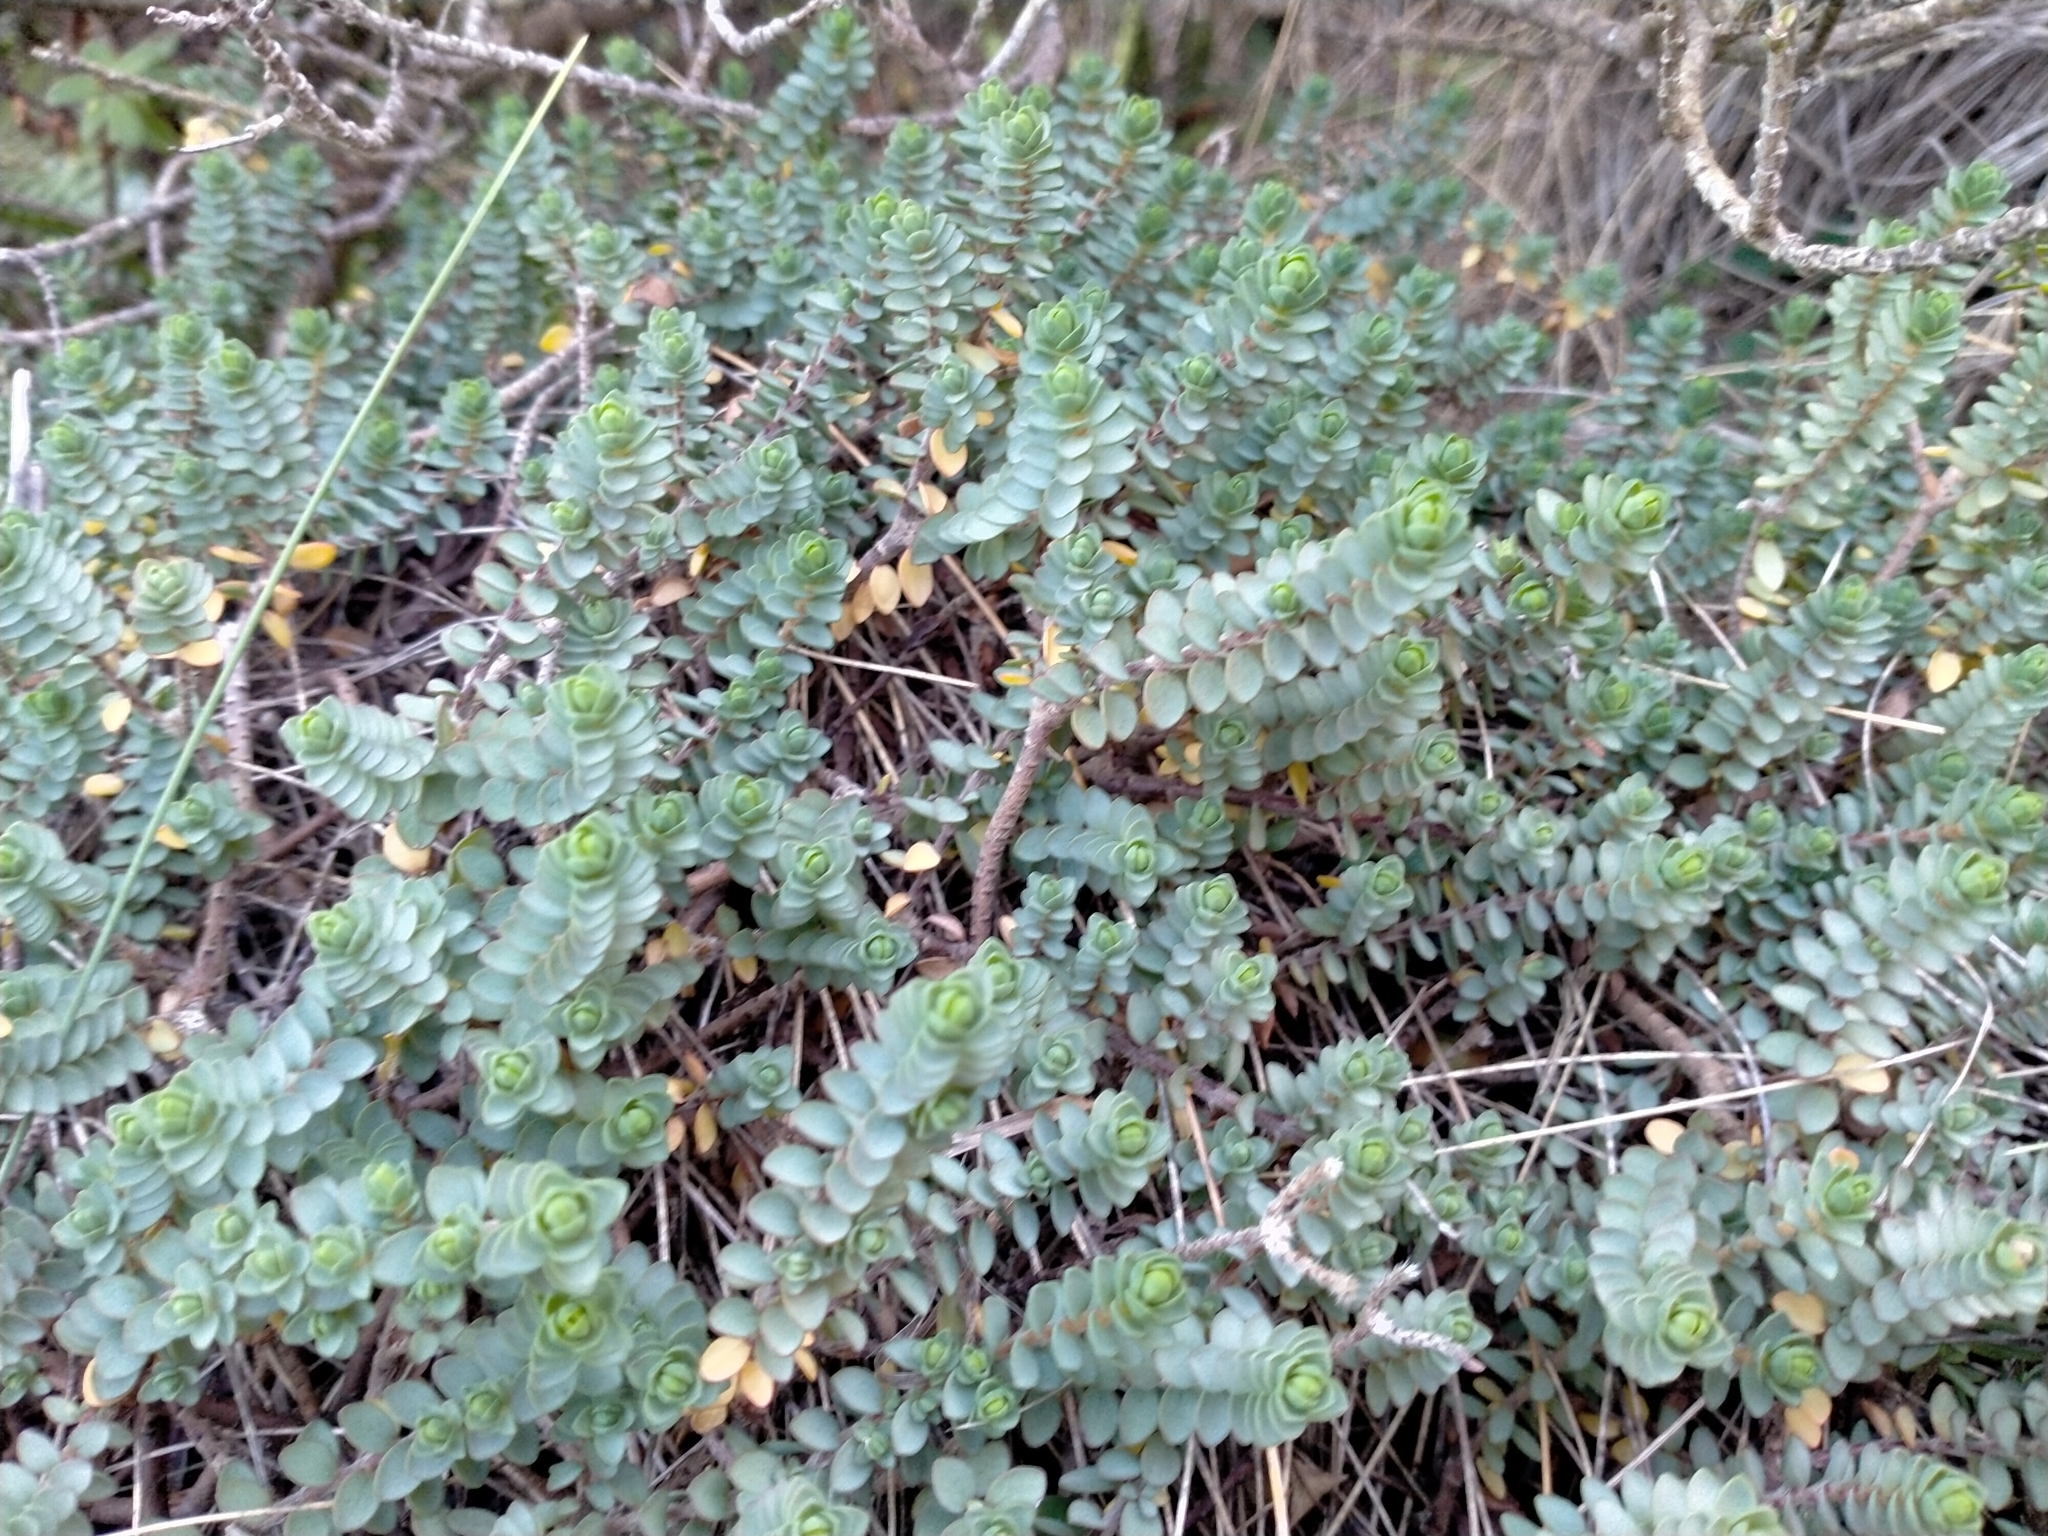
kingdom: Plantae
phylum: Tracheophyta
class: Magnoliopsida
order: Malvales
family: Thymelaeaceae
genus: Pimelea
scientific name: Pimelea prostrata
